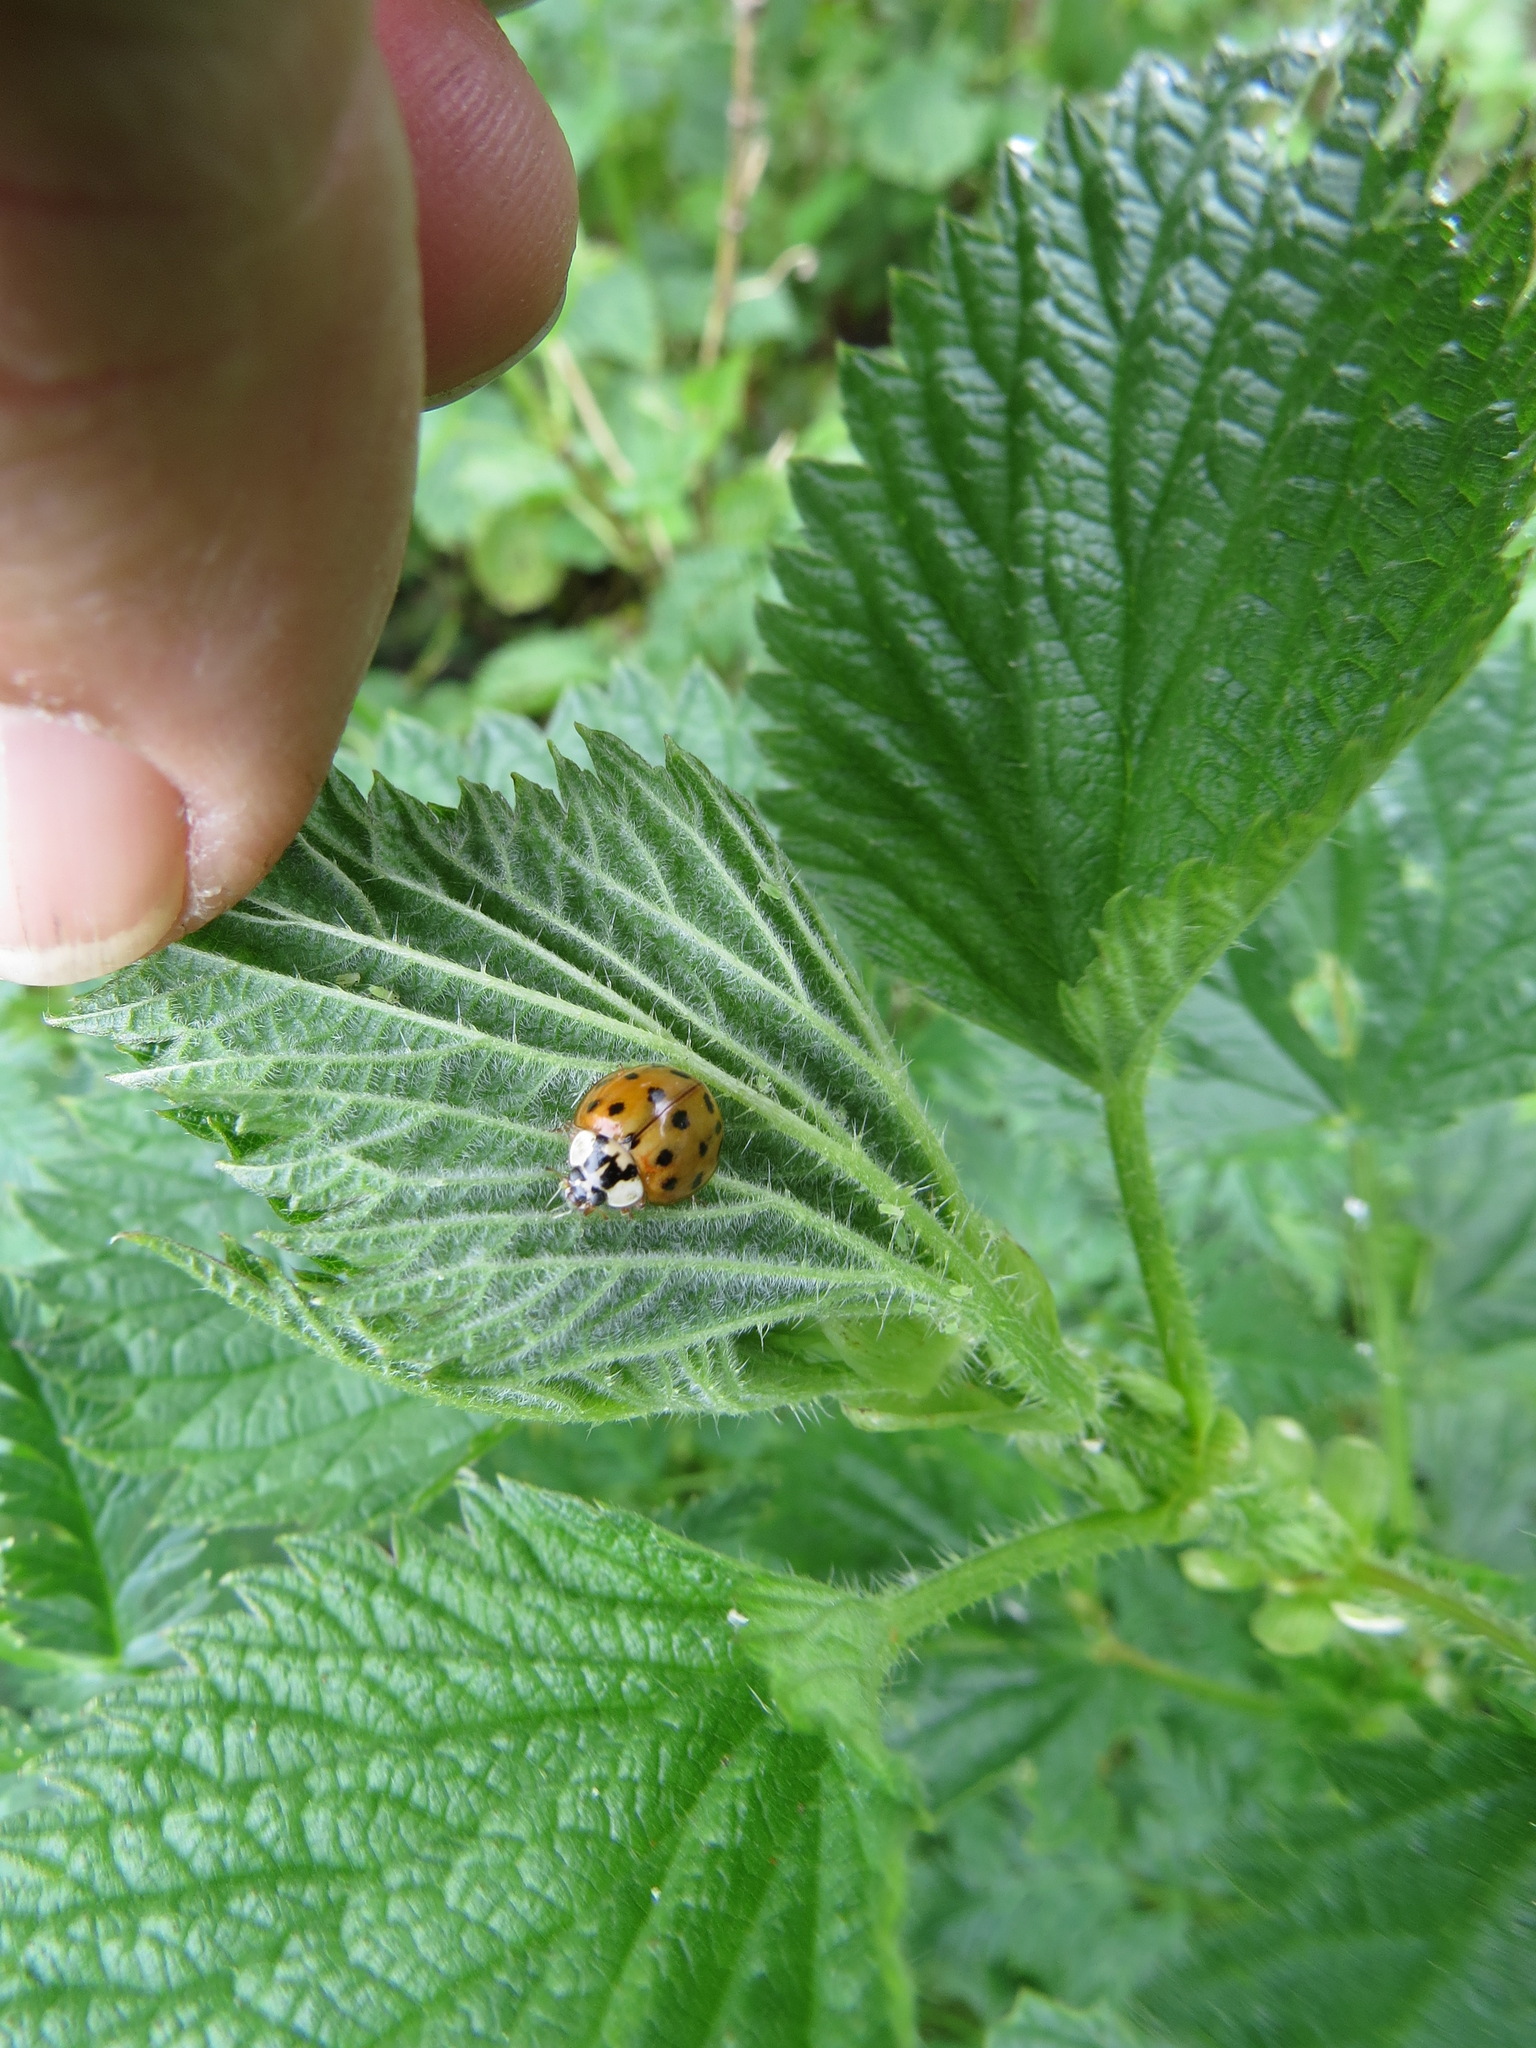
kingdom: Animalia
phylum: Arthropoda
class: Insecta
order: Coleoptera
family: Coccinellidae
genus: Harmonia
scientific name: Harmonia axyridis
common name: Harlequin ladybird
